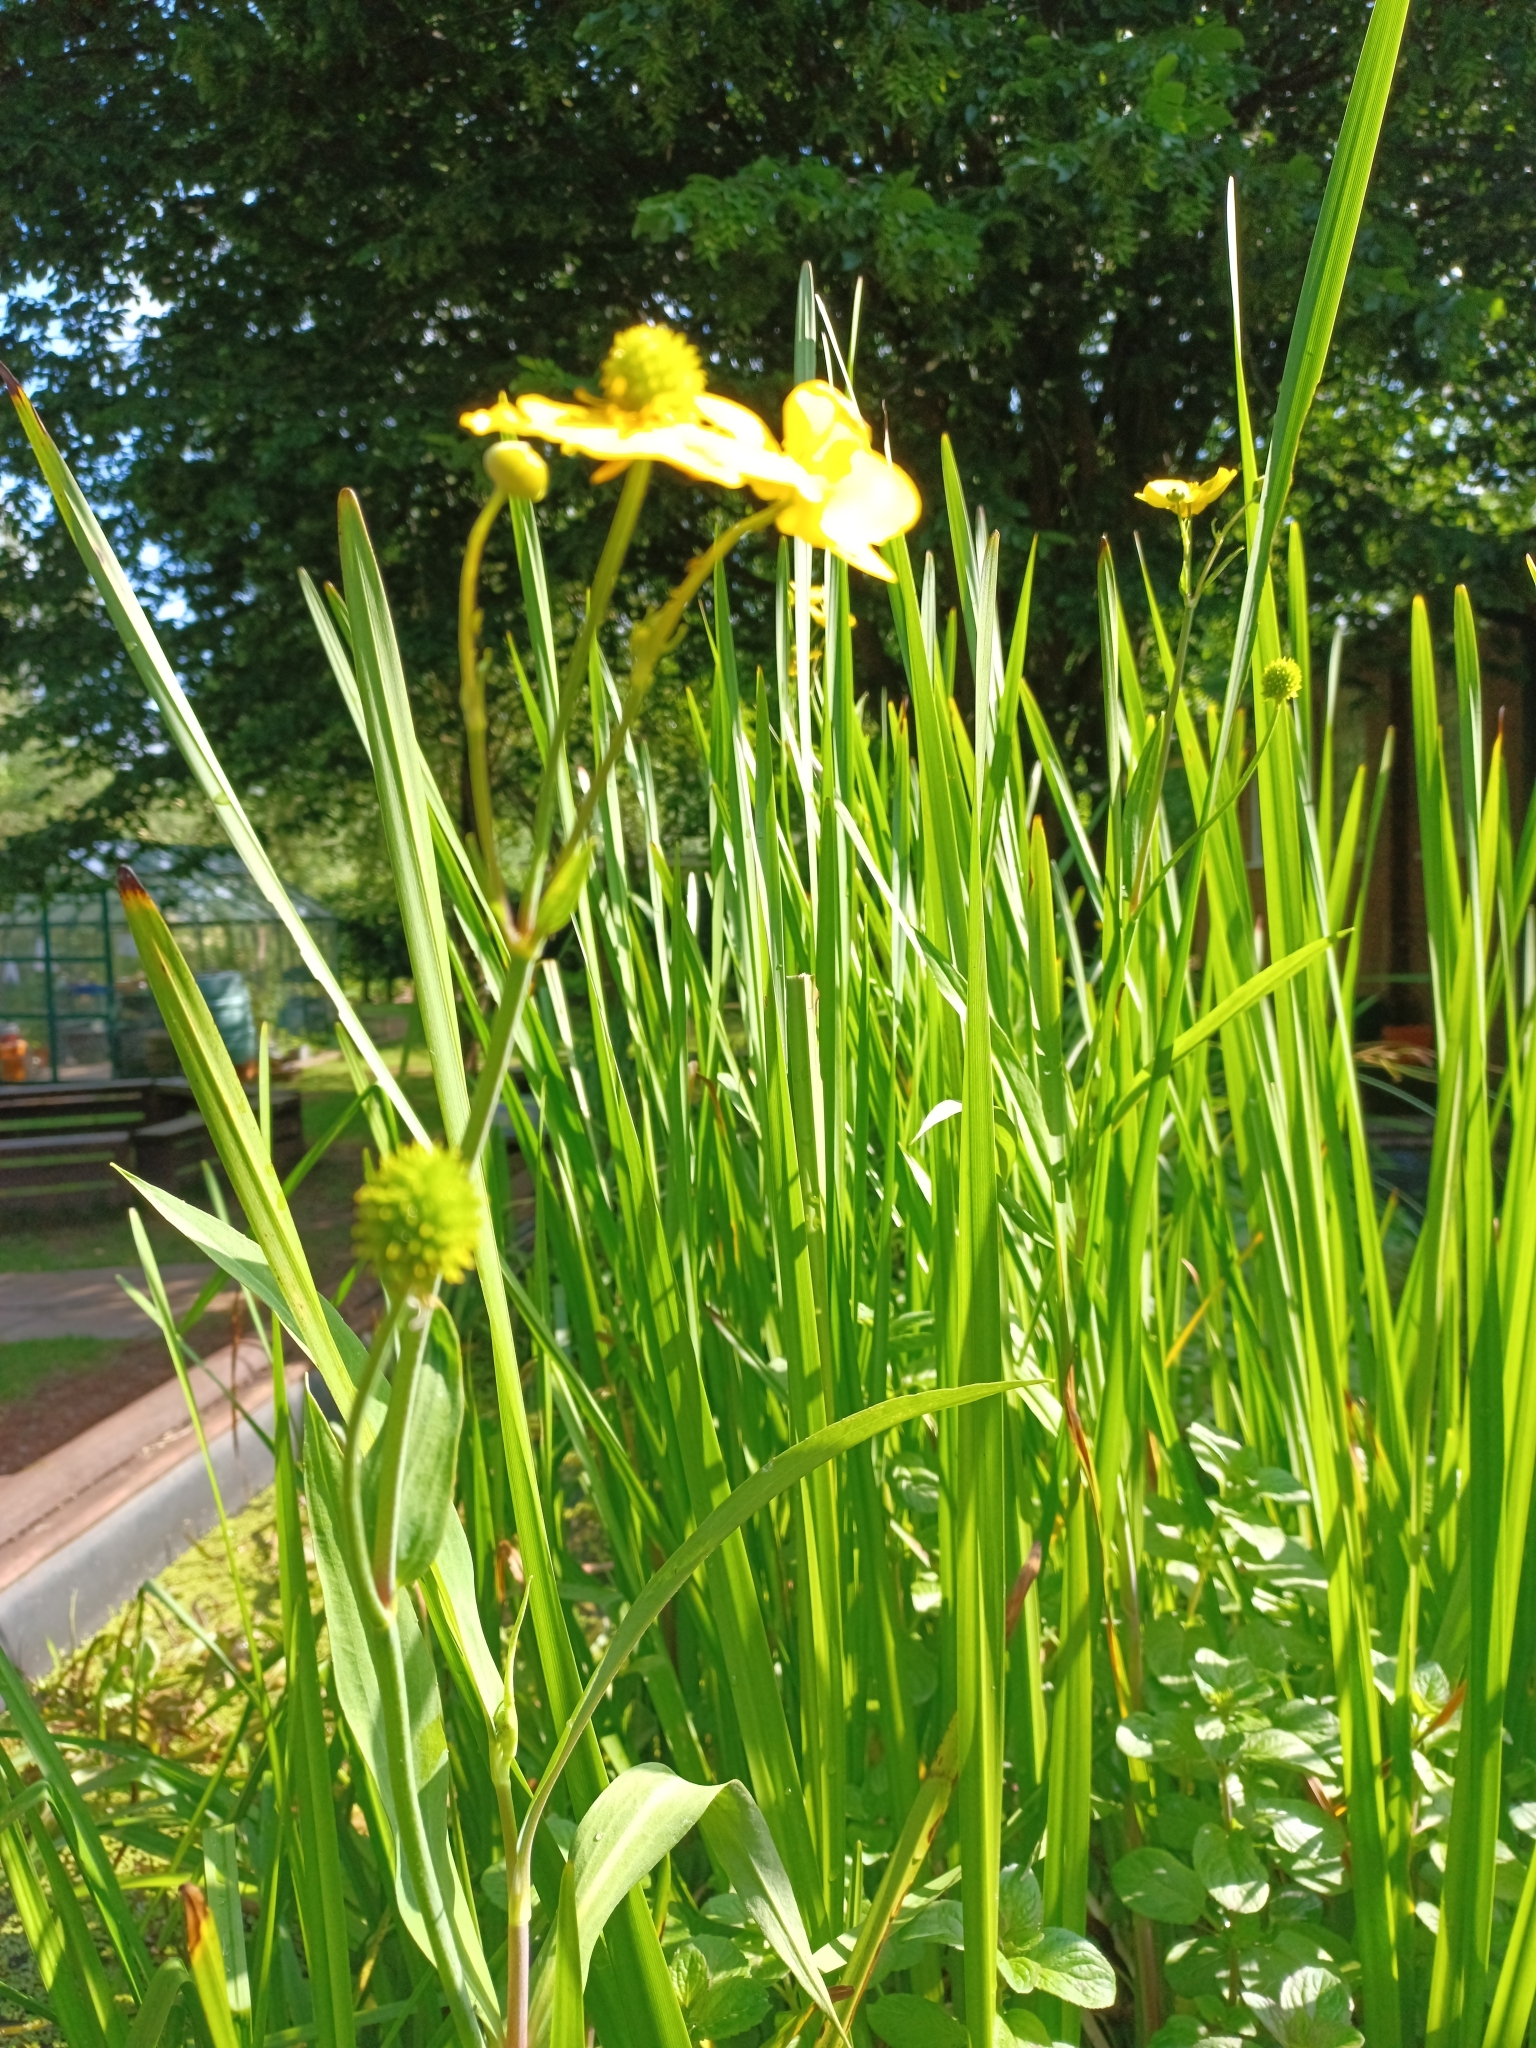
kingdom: Plantae
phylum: Tracheophyta
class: Magnoliopsida
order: Ranunculales
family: Ranunculaceae
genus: Ranunculus
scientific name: Ranunculus lingua
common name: Greater spearwort
